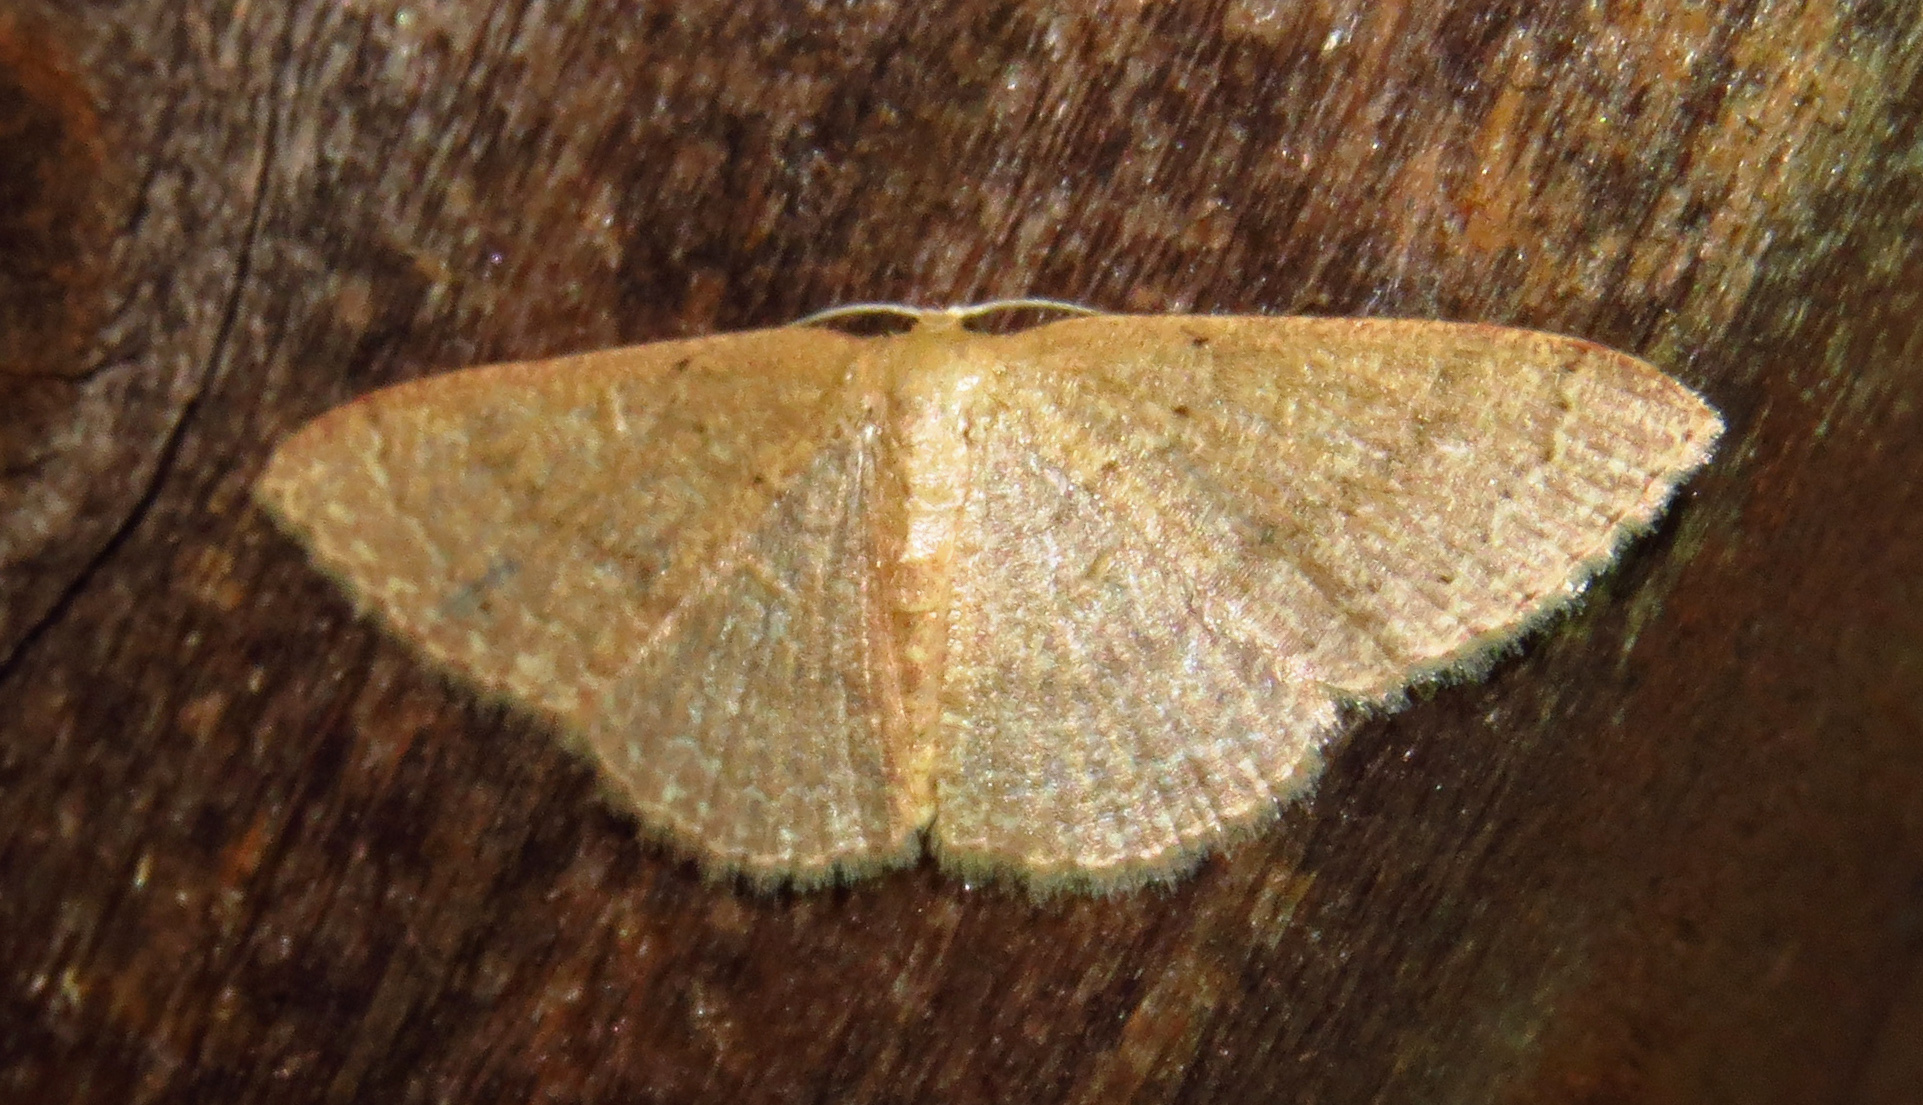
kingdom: Animalia
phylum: Arthropoda
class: Insecta
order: Lepidoptera
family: Geometridae
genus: Pleuroprucha
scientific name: Pleuroprucha insulsaria
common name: Common tan wave
